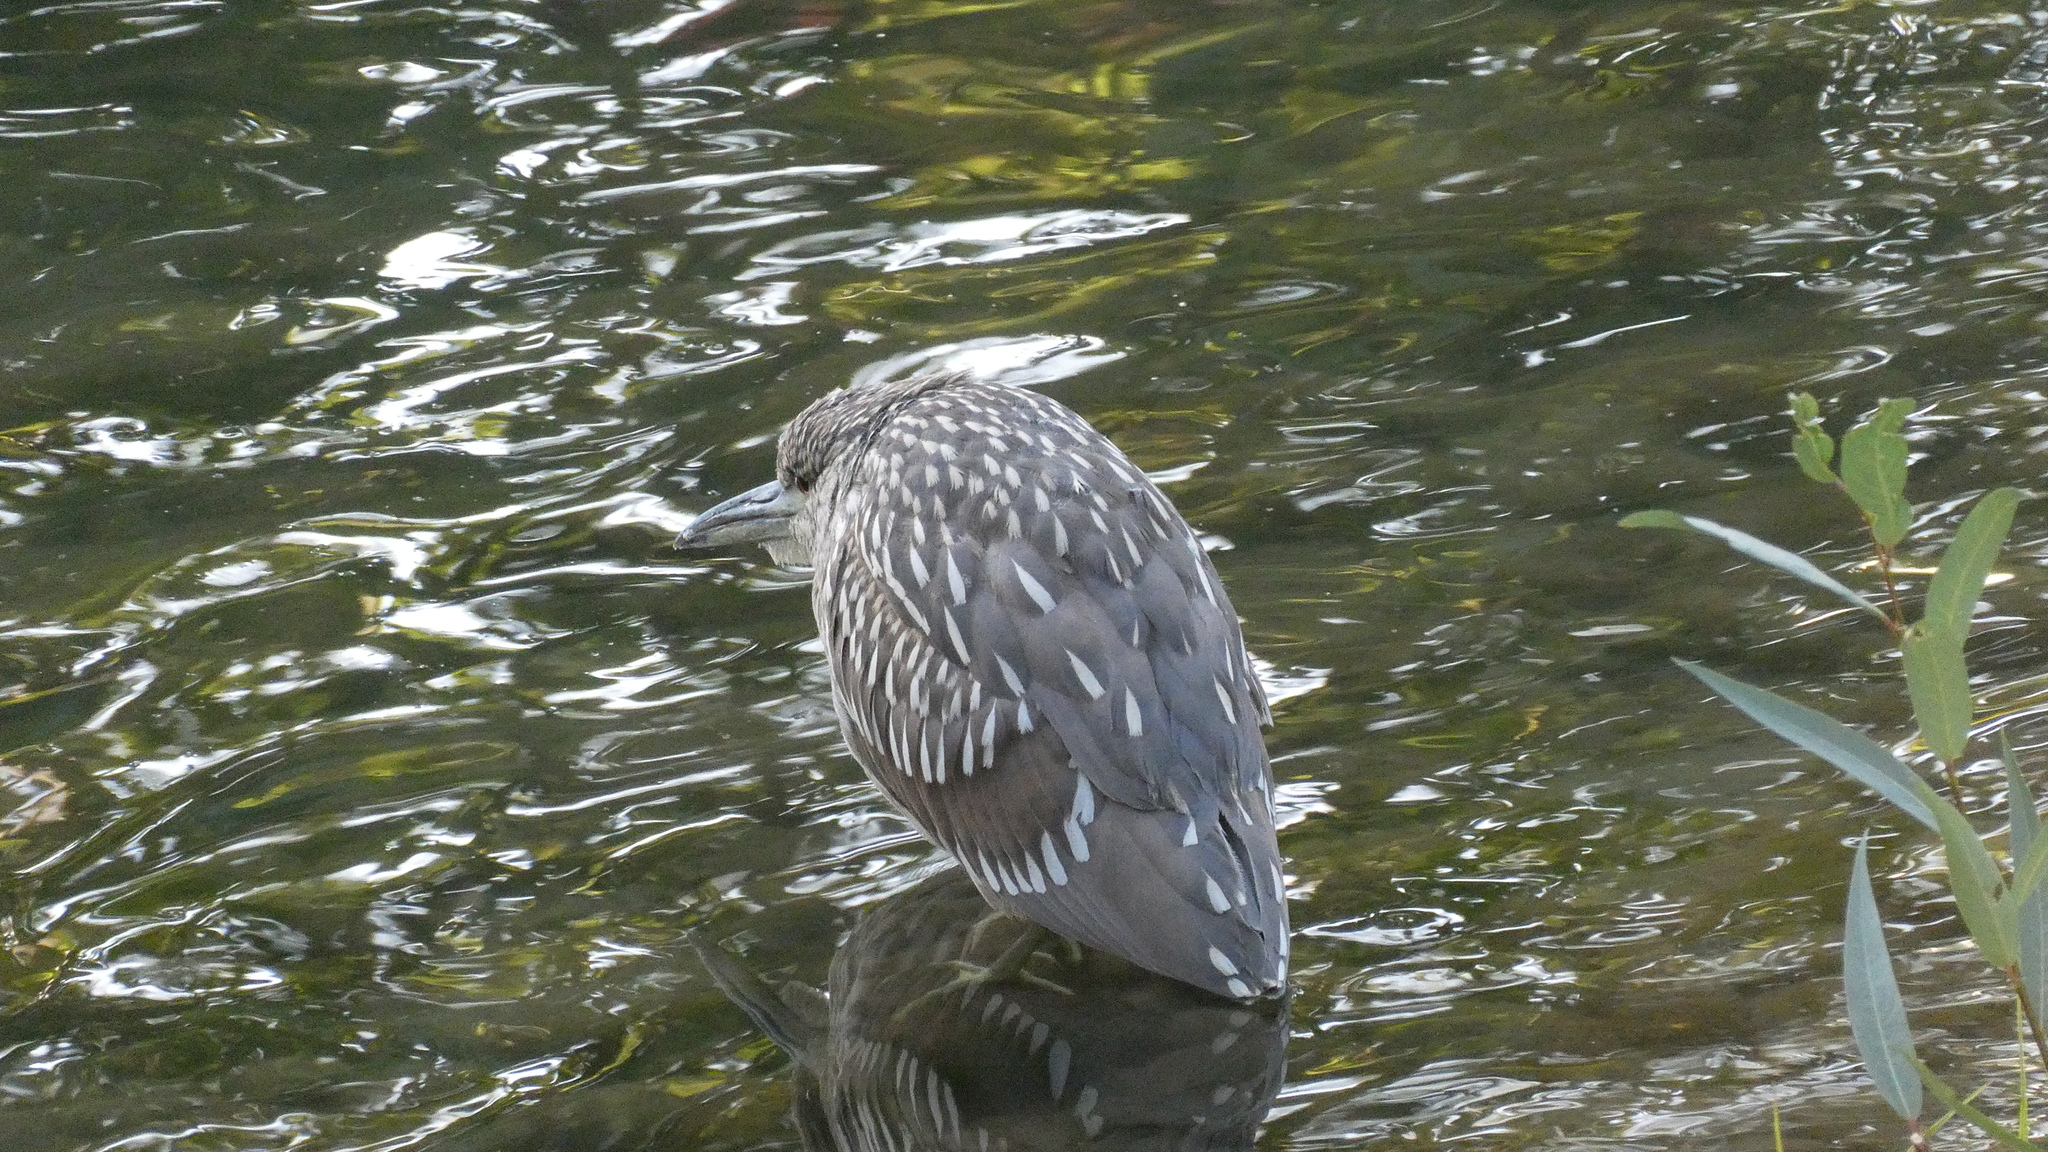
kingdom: Animalia
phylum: Chordata
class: Aves
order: Pelecaniformes
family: Ardeidae
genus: Nycticorax
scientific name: Nycticorax nycticorax
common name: Black-crowned night heron
